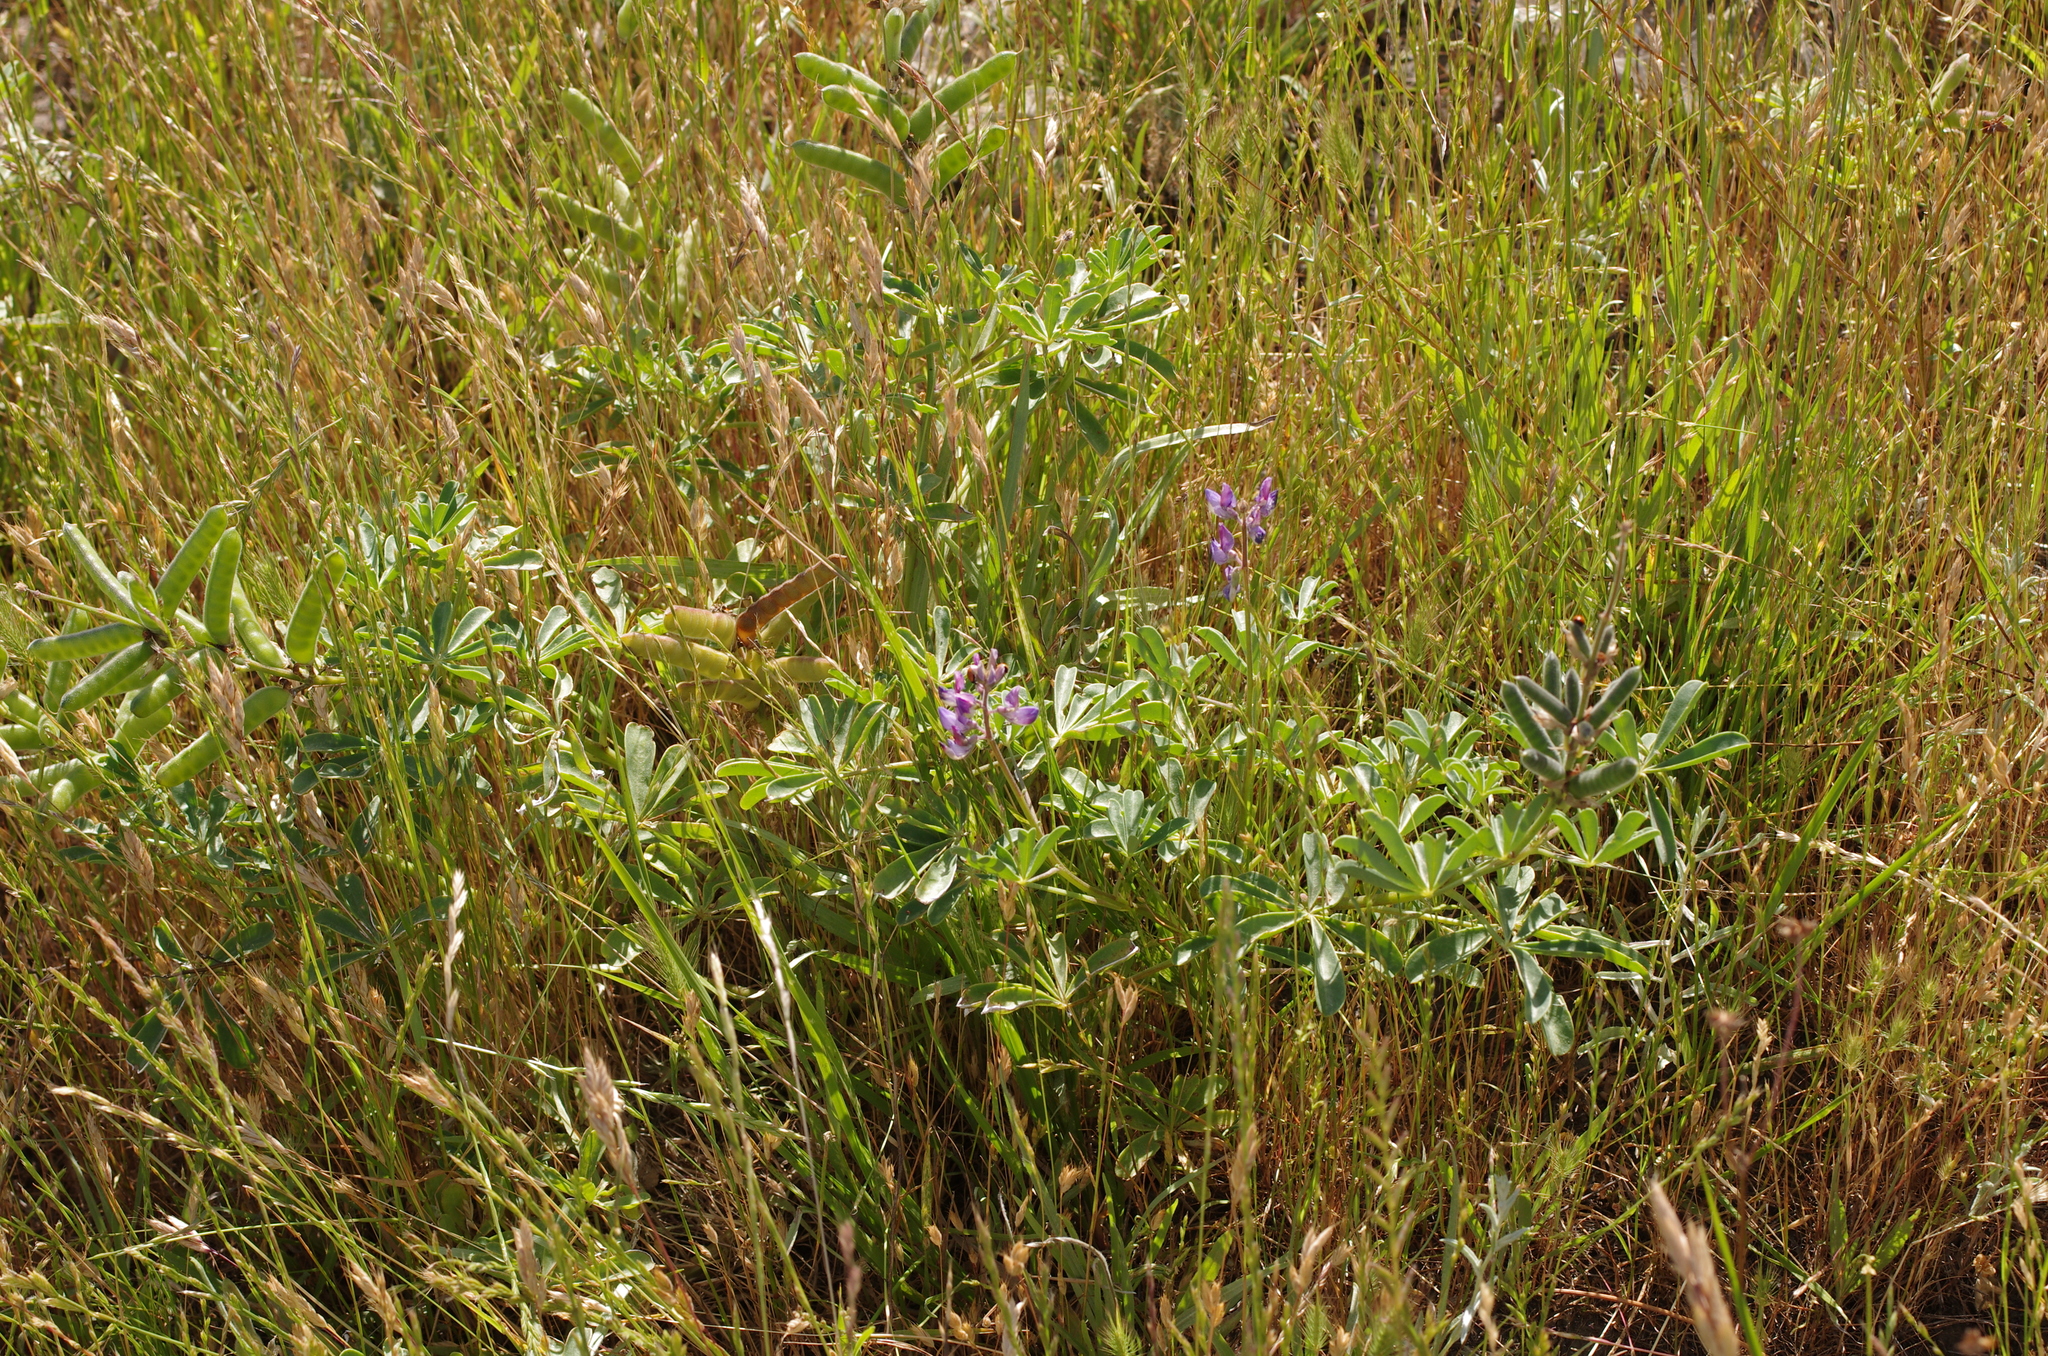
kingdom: Plantae
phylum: Tracheophyta
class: Magnoliopsida
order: Fabales
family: Fabaceae
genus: Lupinus
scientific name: Lupinus succulentus
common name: Arroyo lupine
